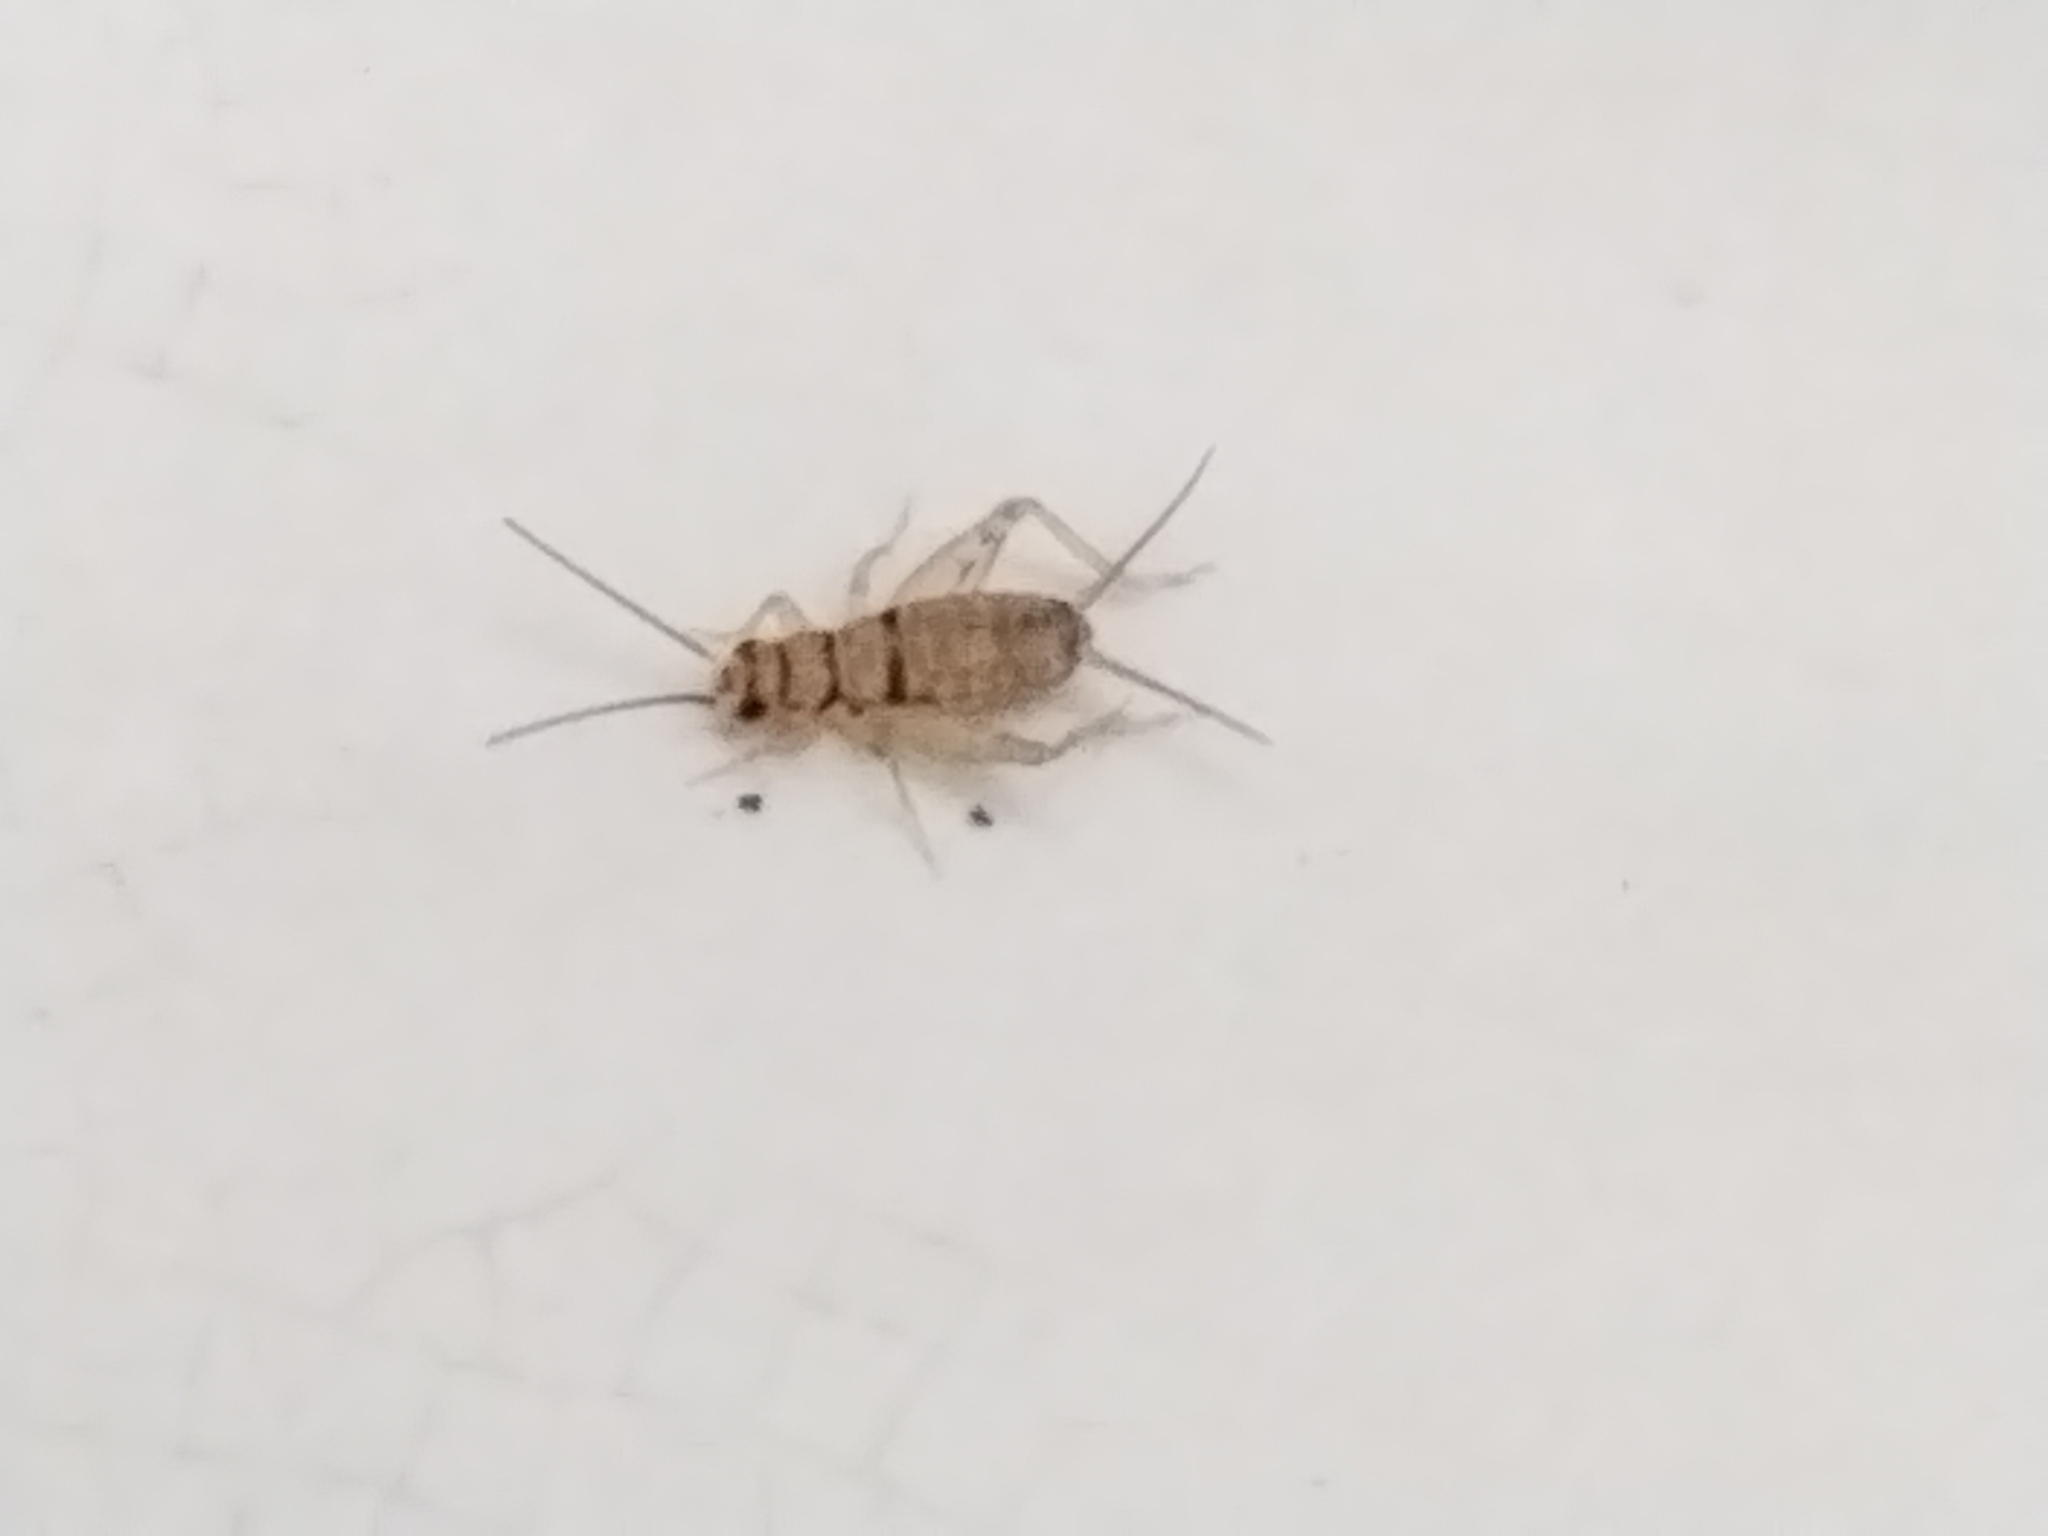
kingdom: Animalia
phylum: Arthropoda
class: Insecta
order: Orthoptera
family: Gryllidae
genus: Gryllodes
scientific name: Gryllodes sigillatus
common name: Tropical house cricket
